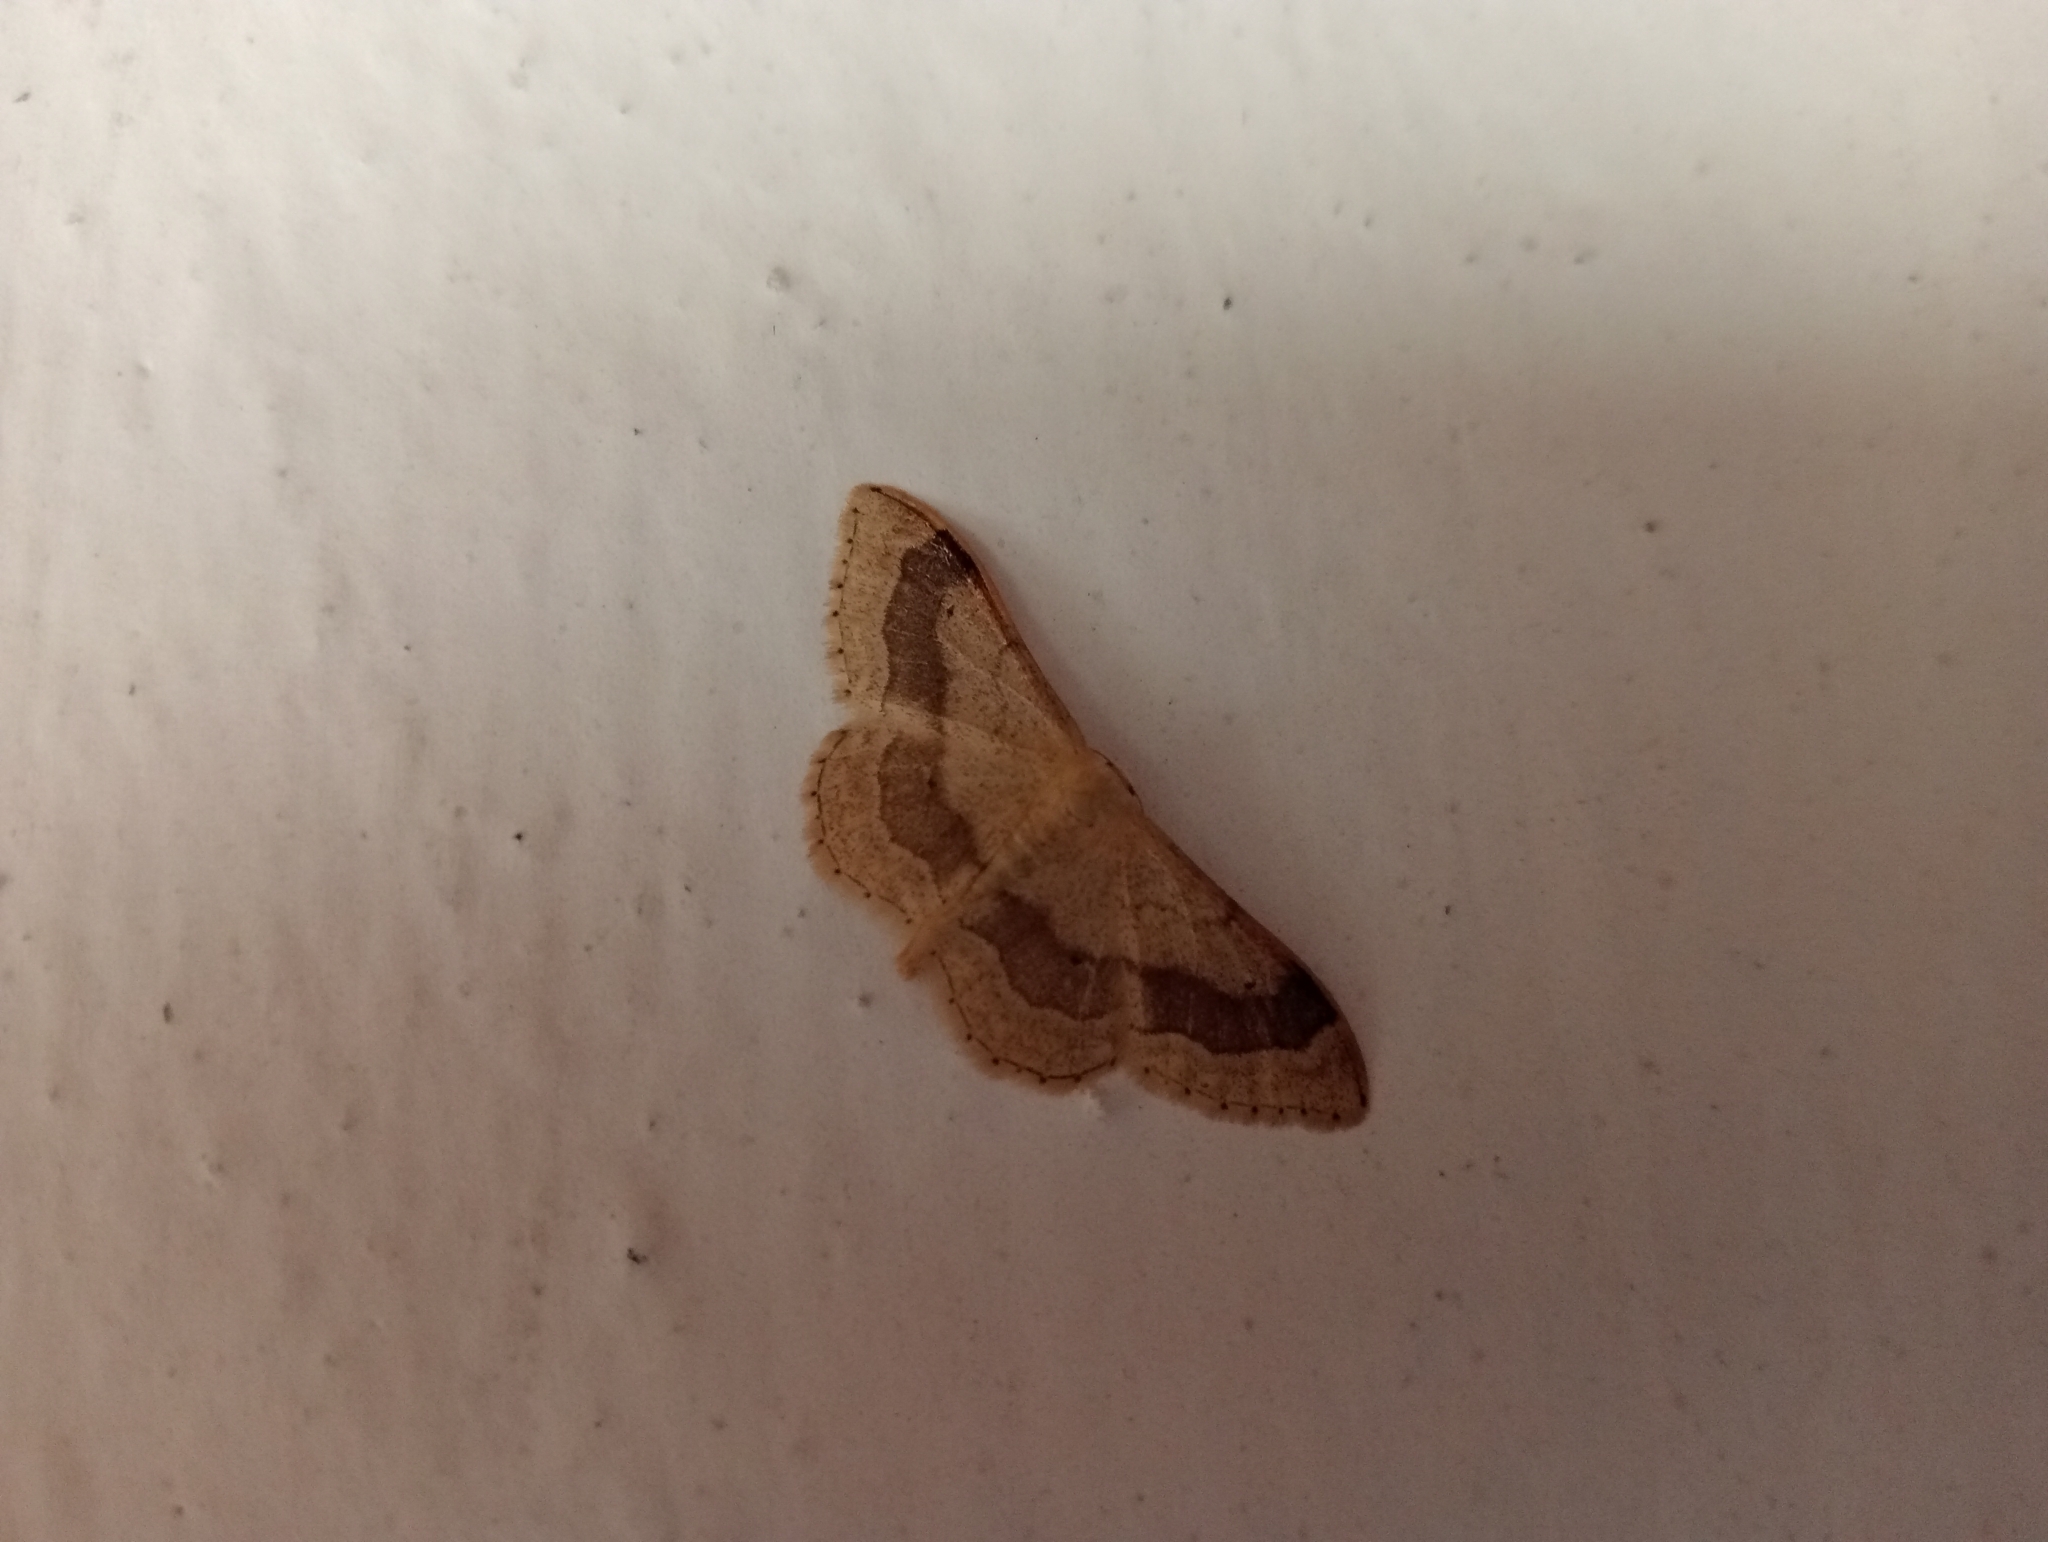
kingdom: Animalia
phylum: Arthropoda
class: Insecta
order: Lepidoptera
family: Geometridae
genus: Idaea
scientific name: Idaea aversata
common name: Riband wave
